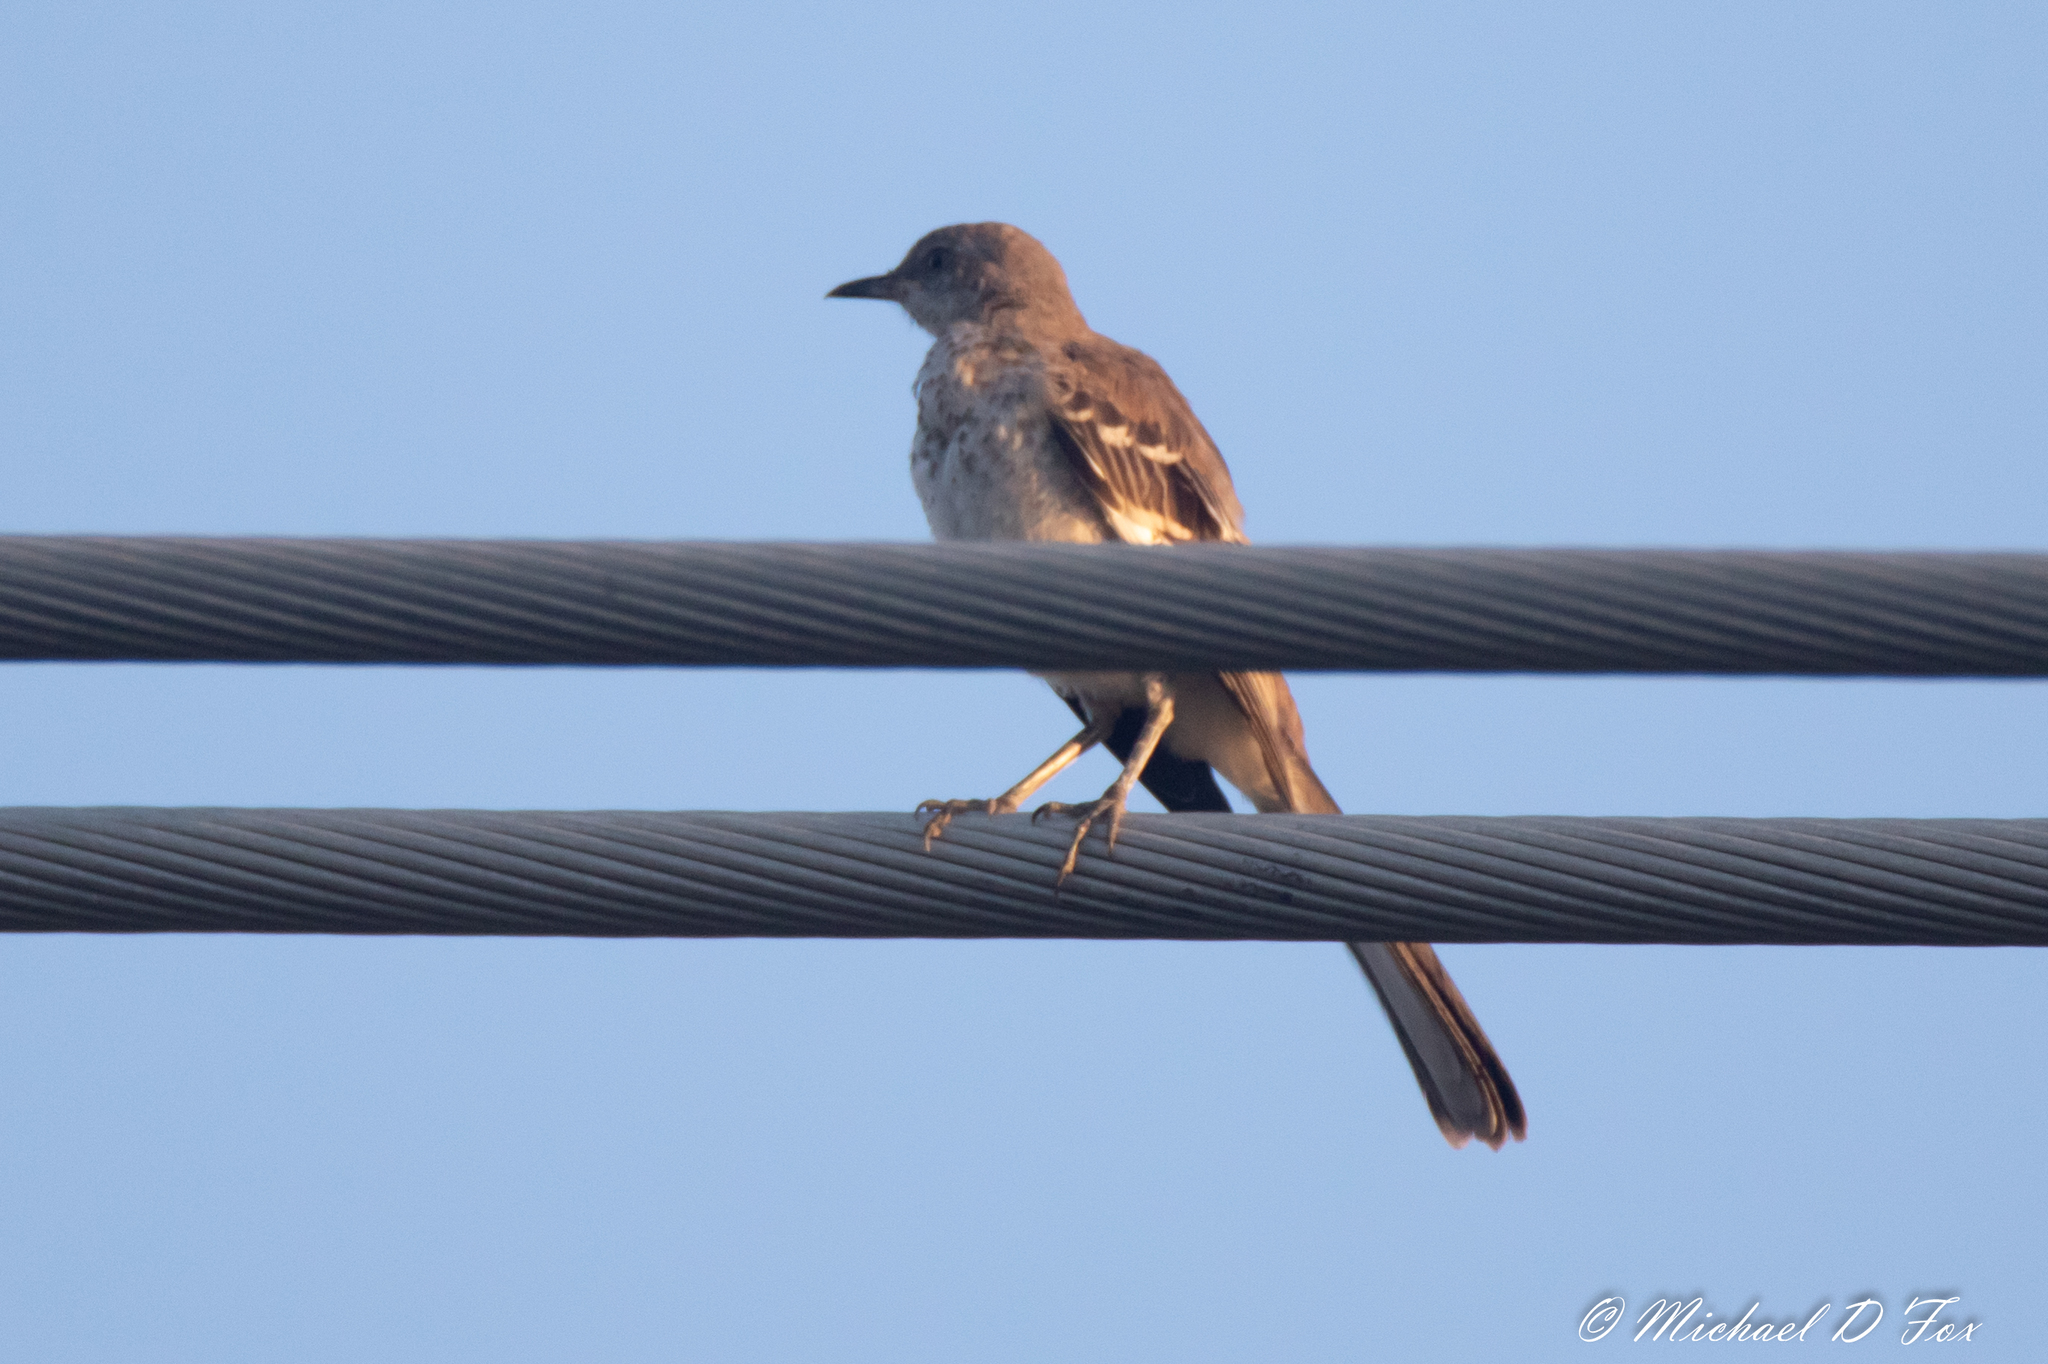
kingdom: Animalia
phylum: Chordata
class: Aves
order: Passeriformes
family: Mimidae
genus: Mimus
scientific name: Mimus polyglottos
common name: Northern mockingbird
